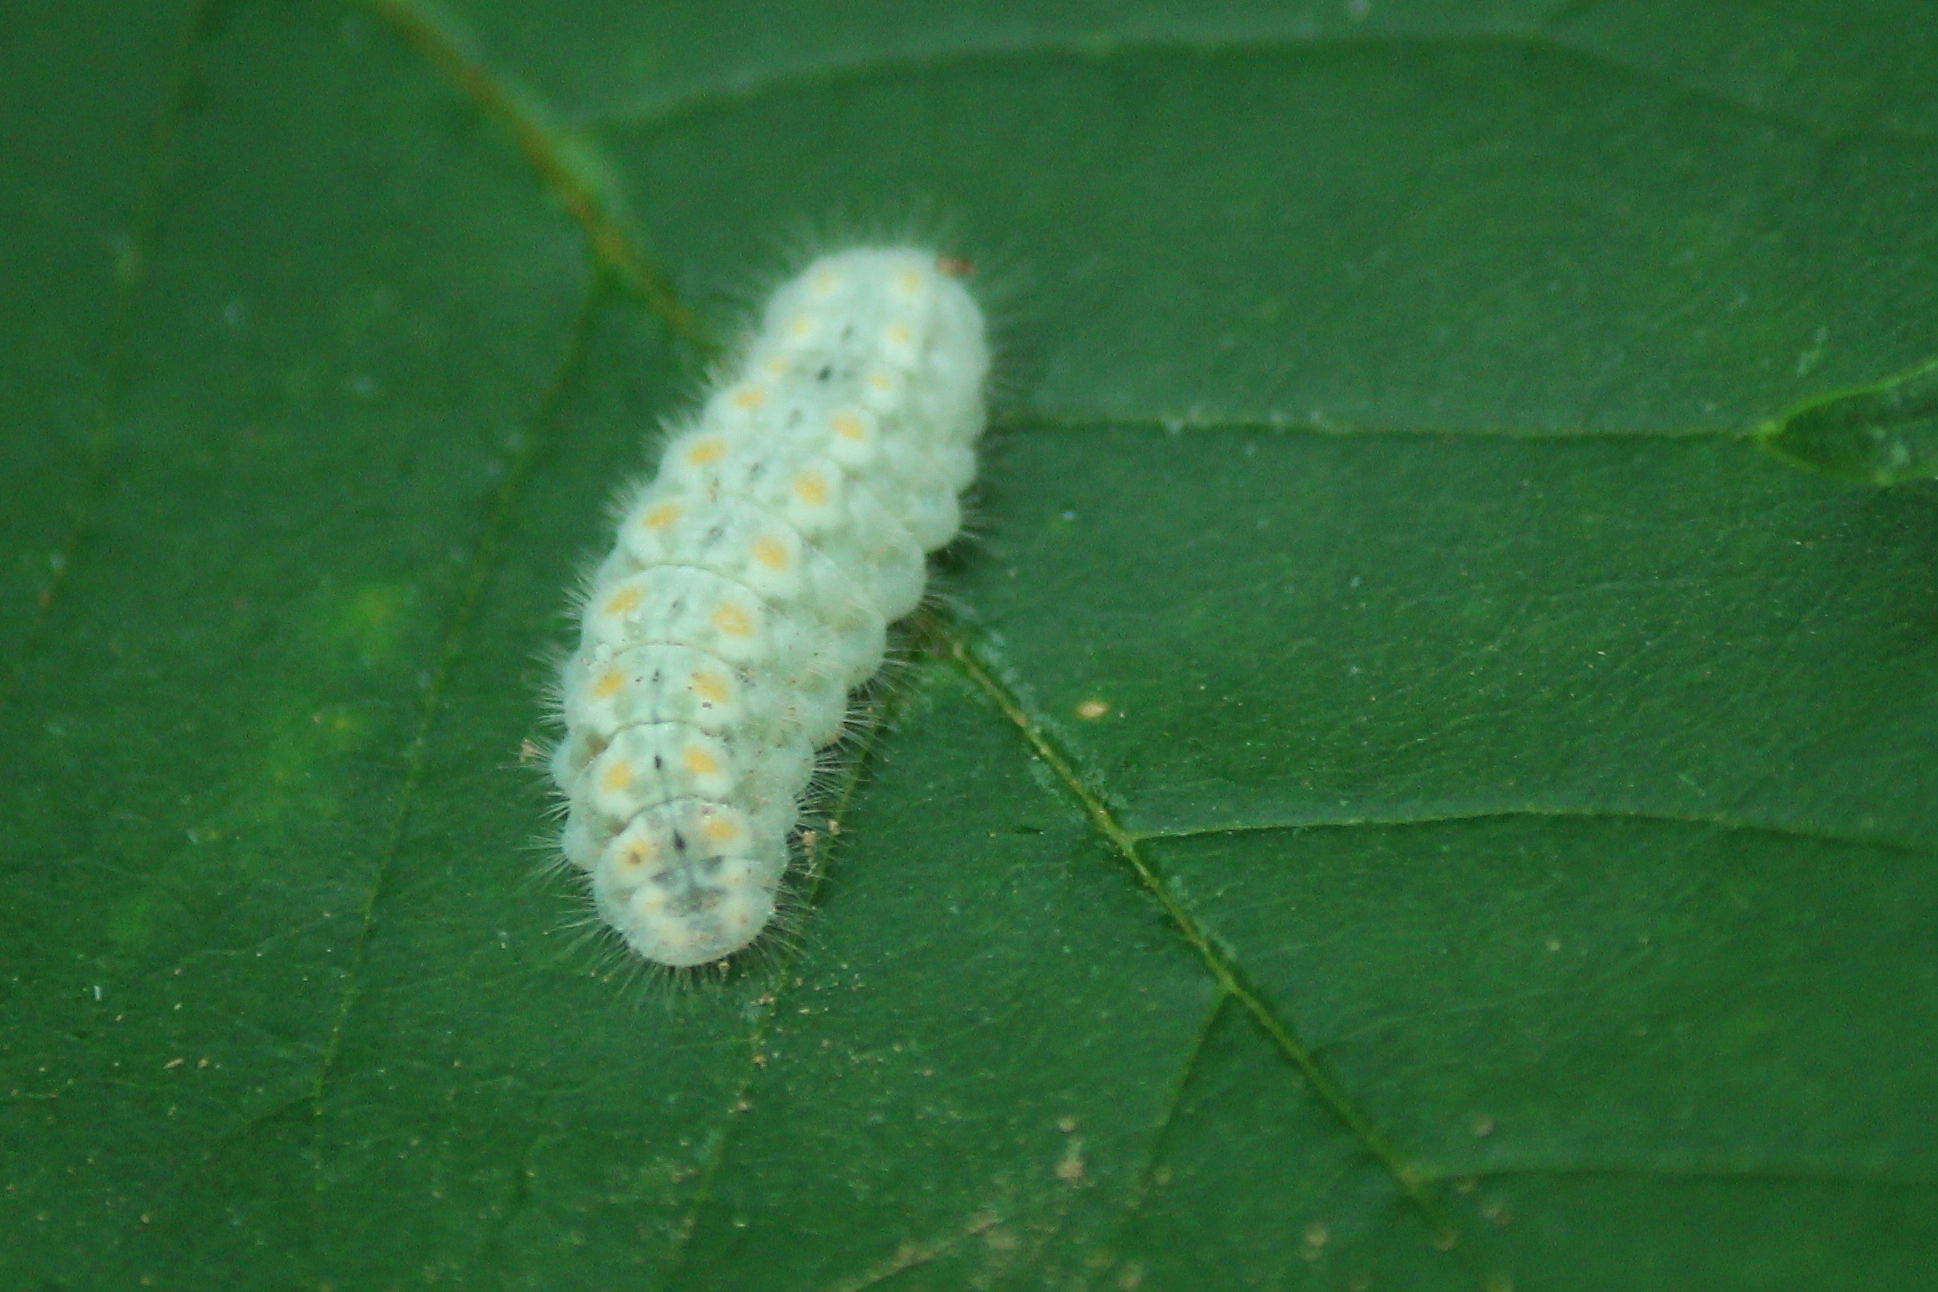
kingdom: Animalia
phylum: Arthropoda
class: Insecta
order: Lepidoptera
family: Lycaenidae
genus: Feniseca
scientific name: Feniseca tarquinius
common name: Harvester
